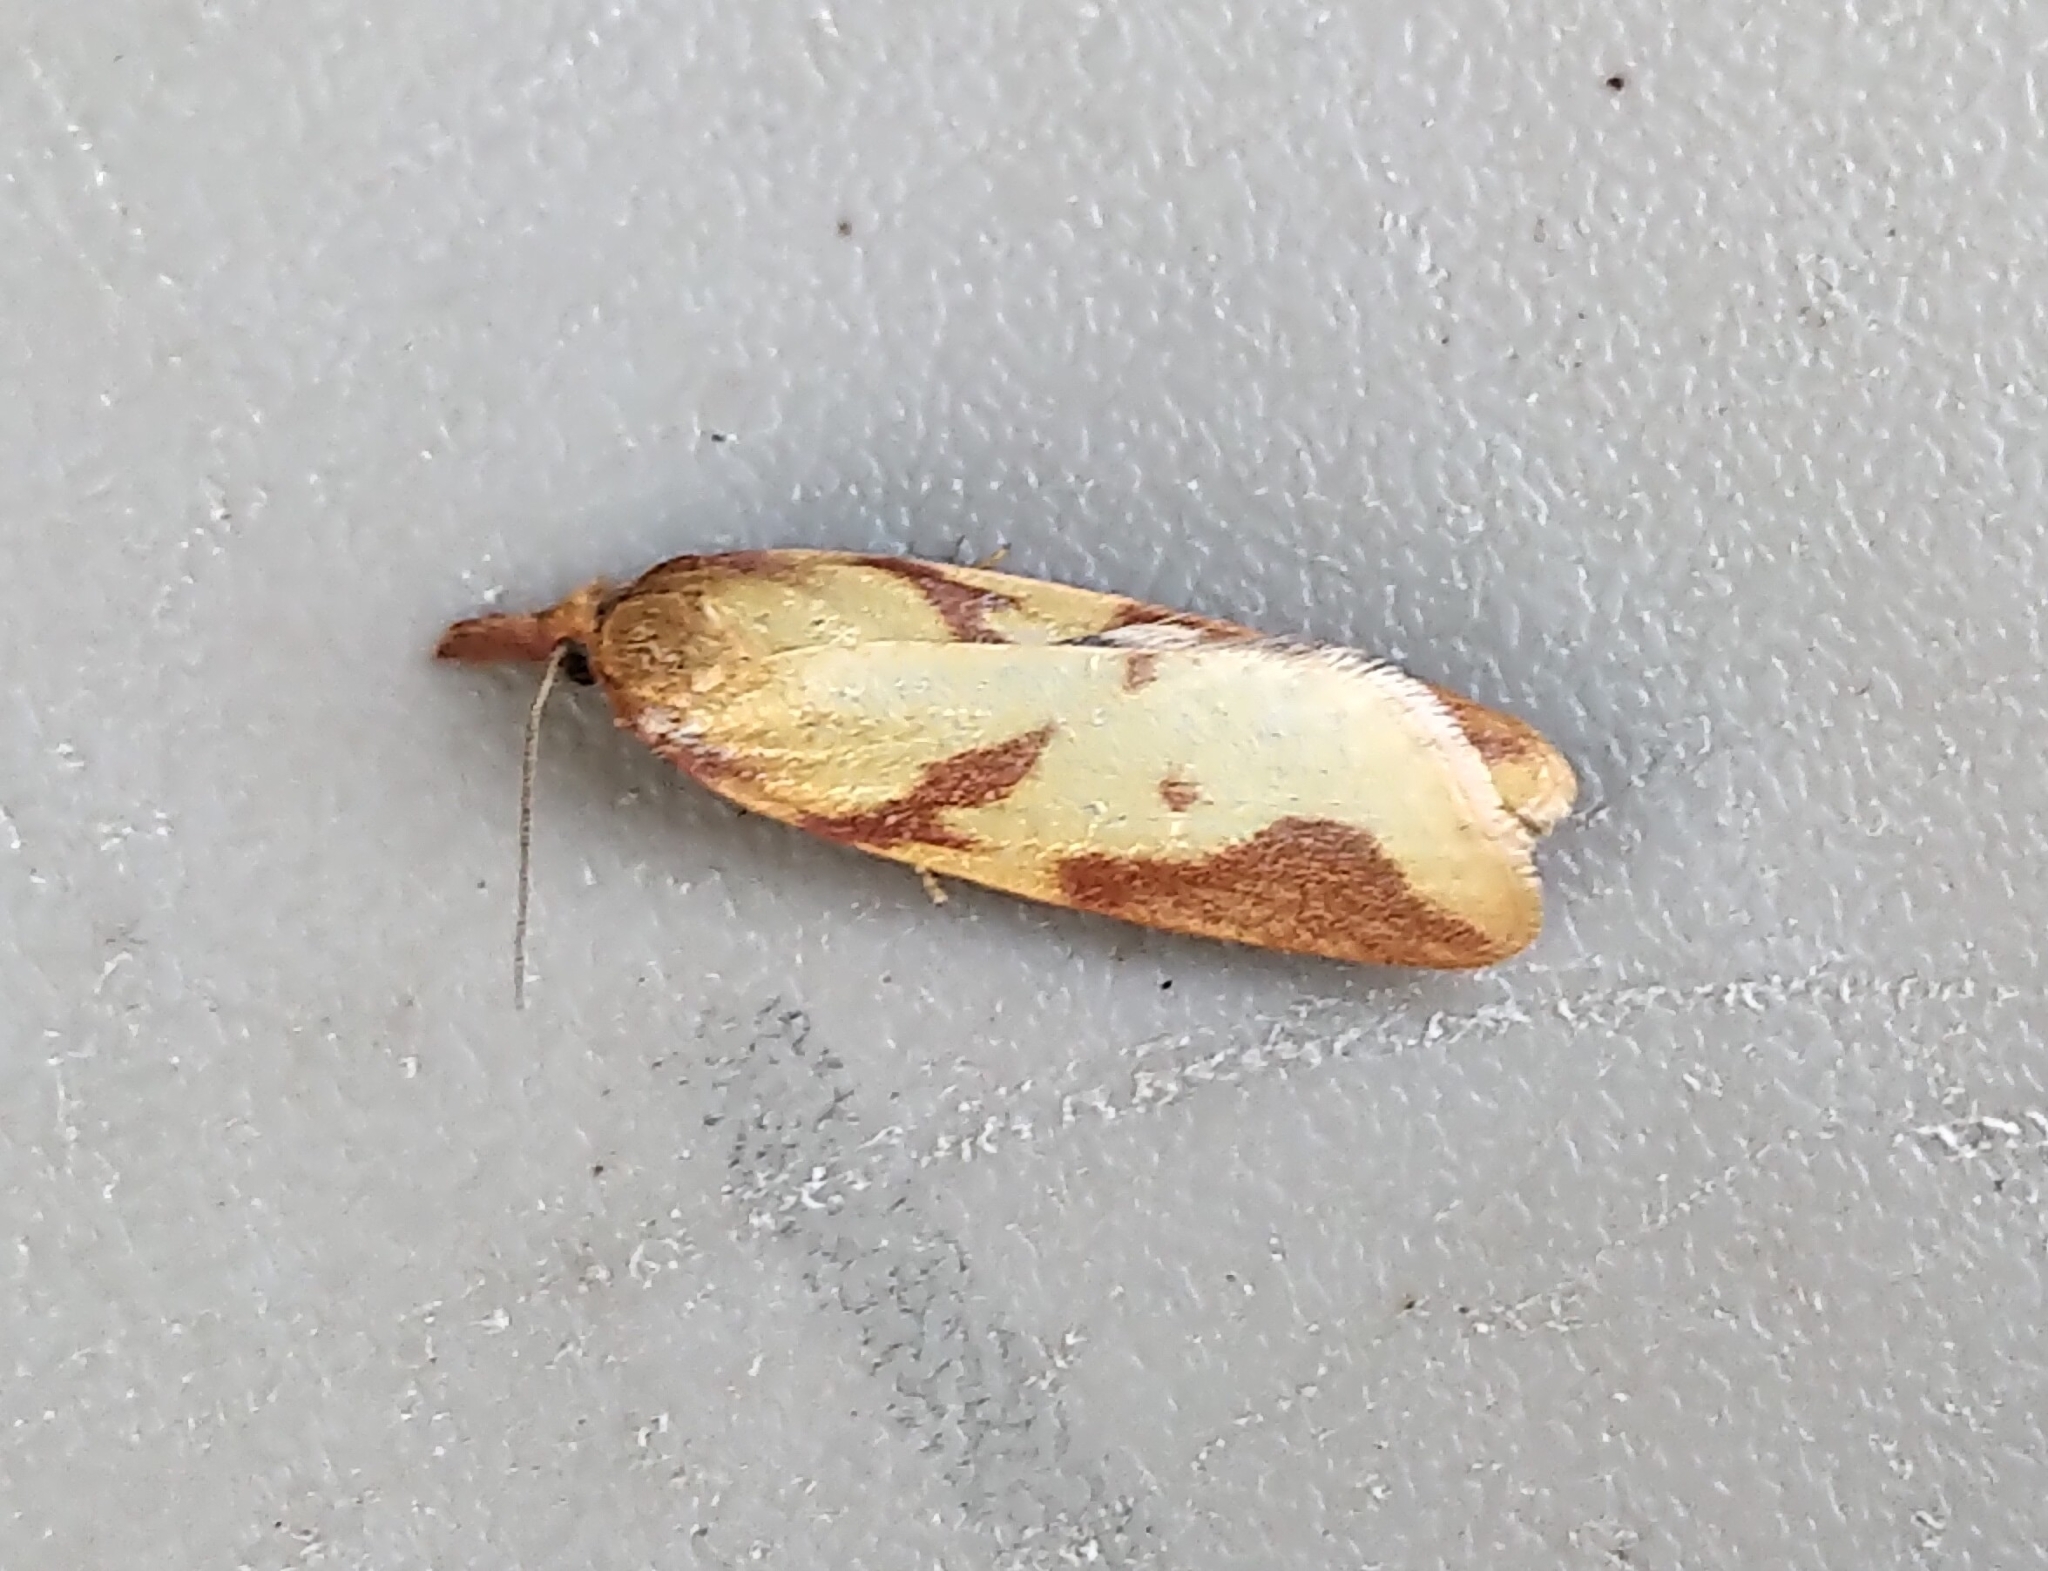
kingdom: Animalia
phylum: Arthropoda
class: Insecta
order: Lepidoptera
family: Tortricidae
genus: Sparganothis
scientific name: Sparganothis vocaridorsana
